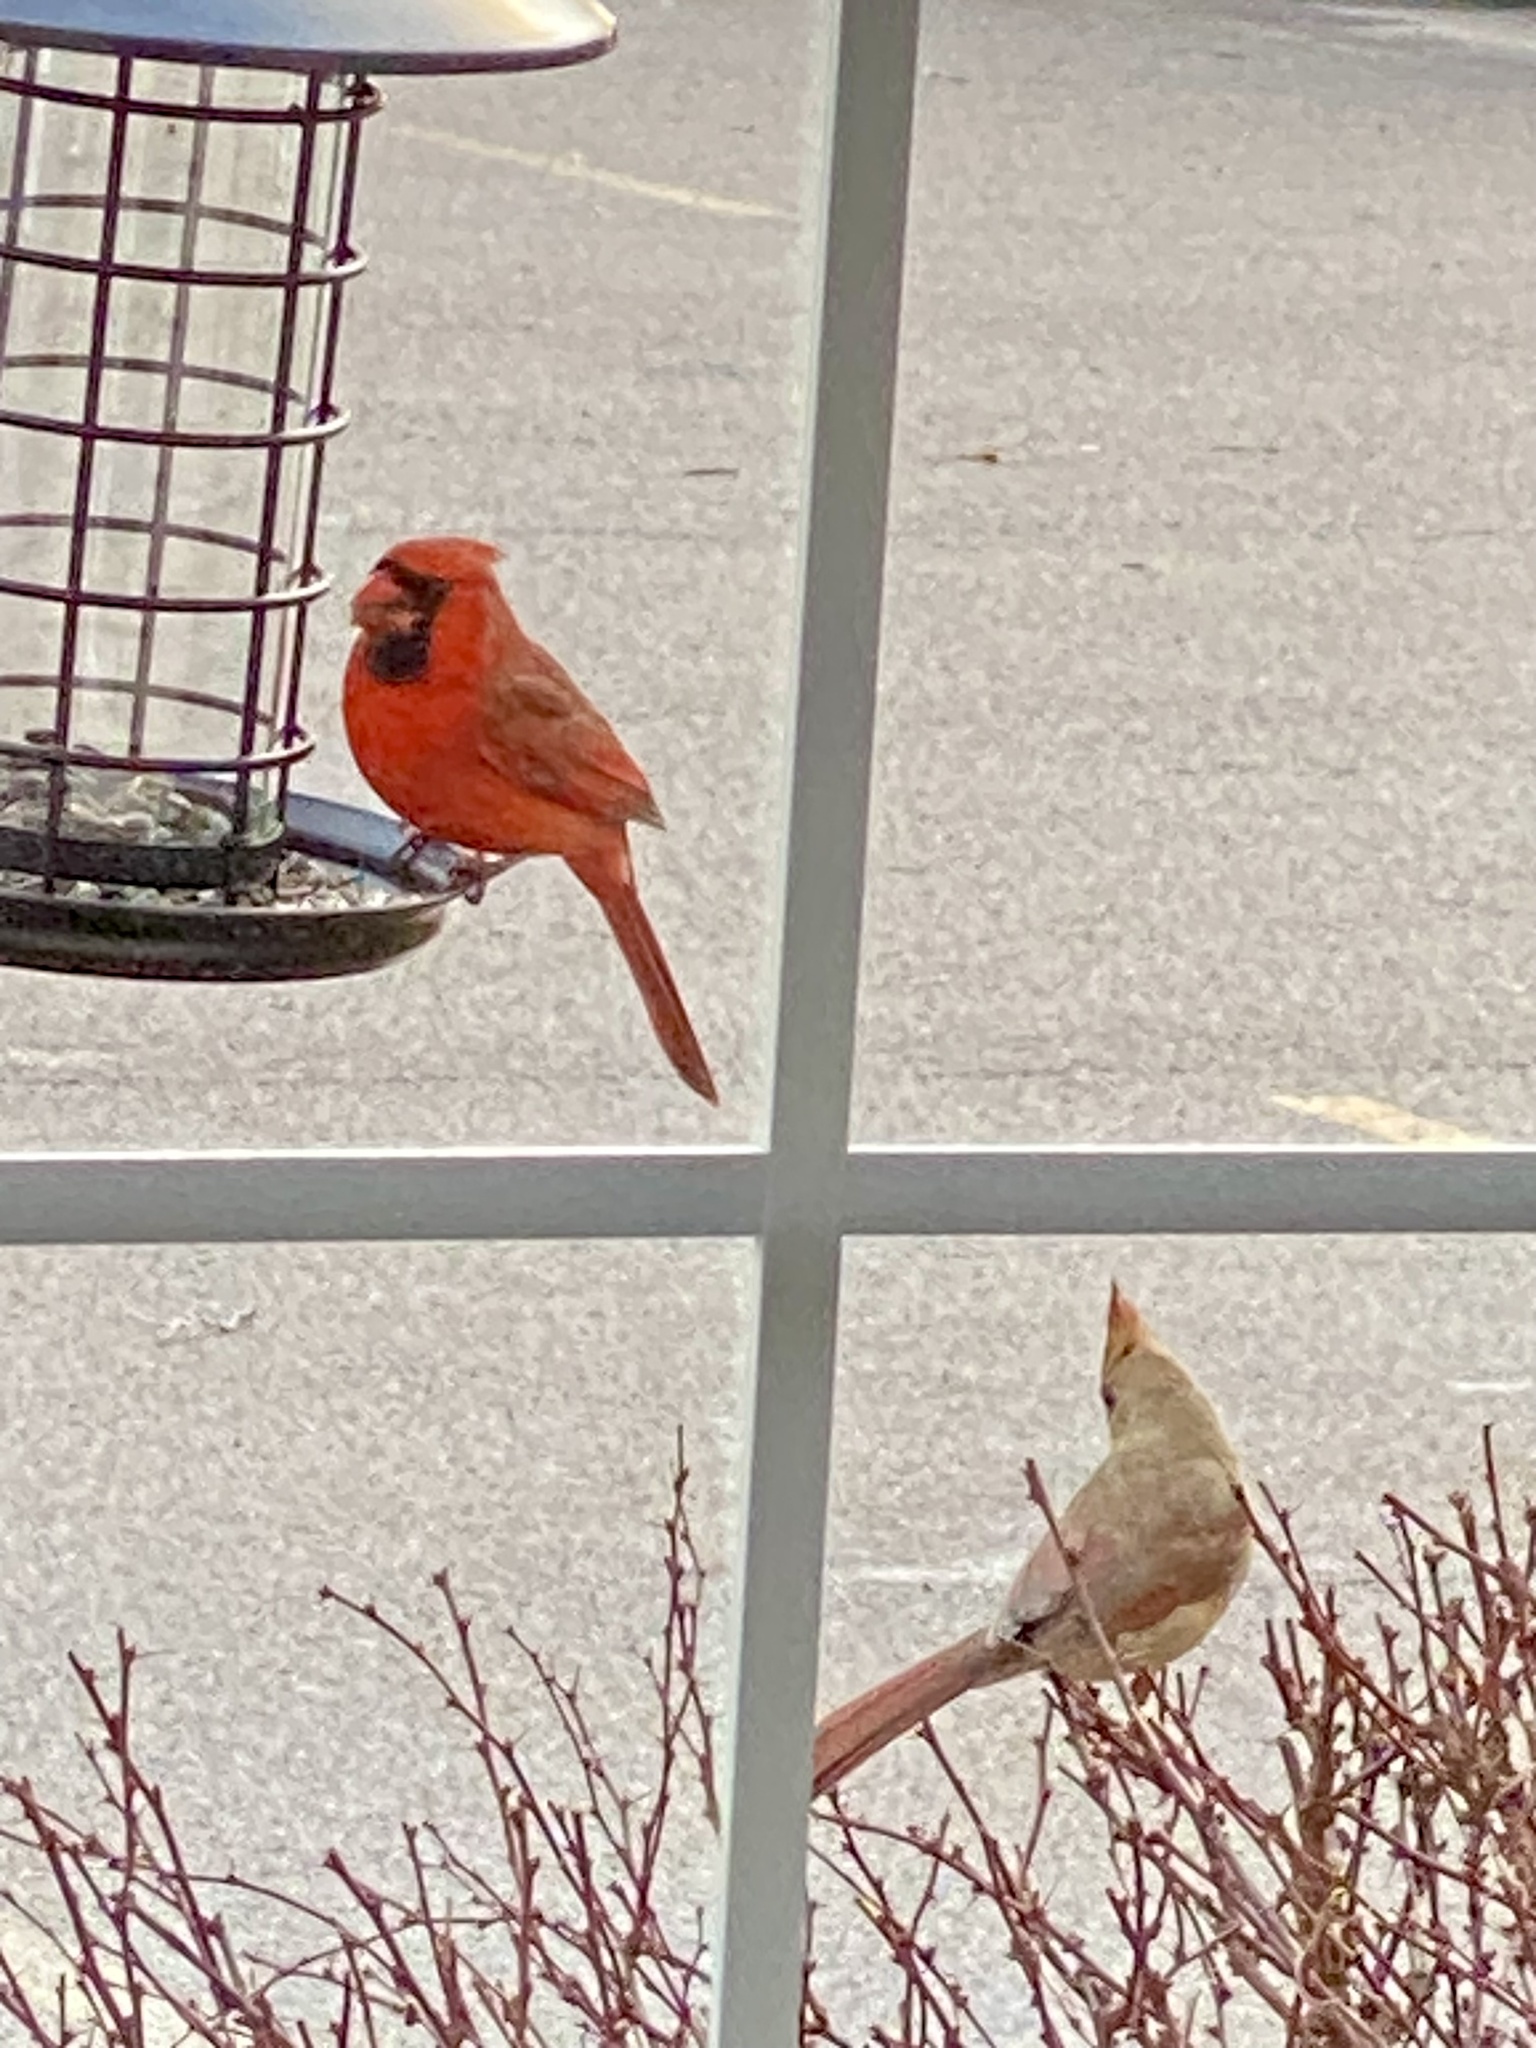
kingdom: Animalia
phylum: Chordata
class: Aves
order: Passeriformes
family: Cardinalidae
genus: Cardinalis
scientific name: Cardinalis cardinalis
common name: Northern cardinal
